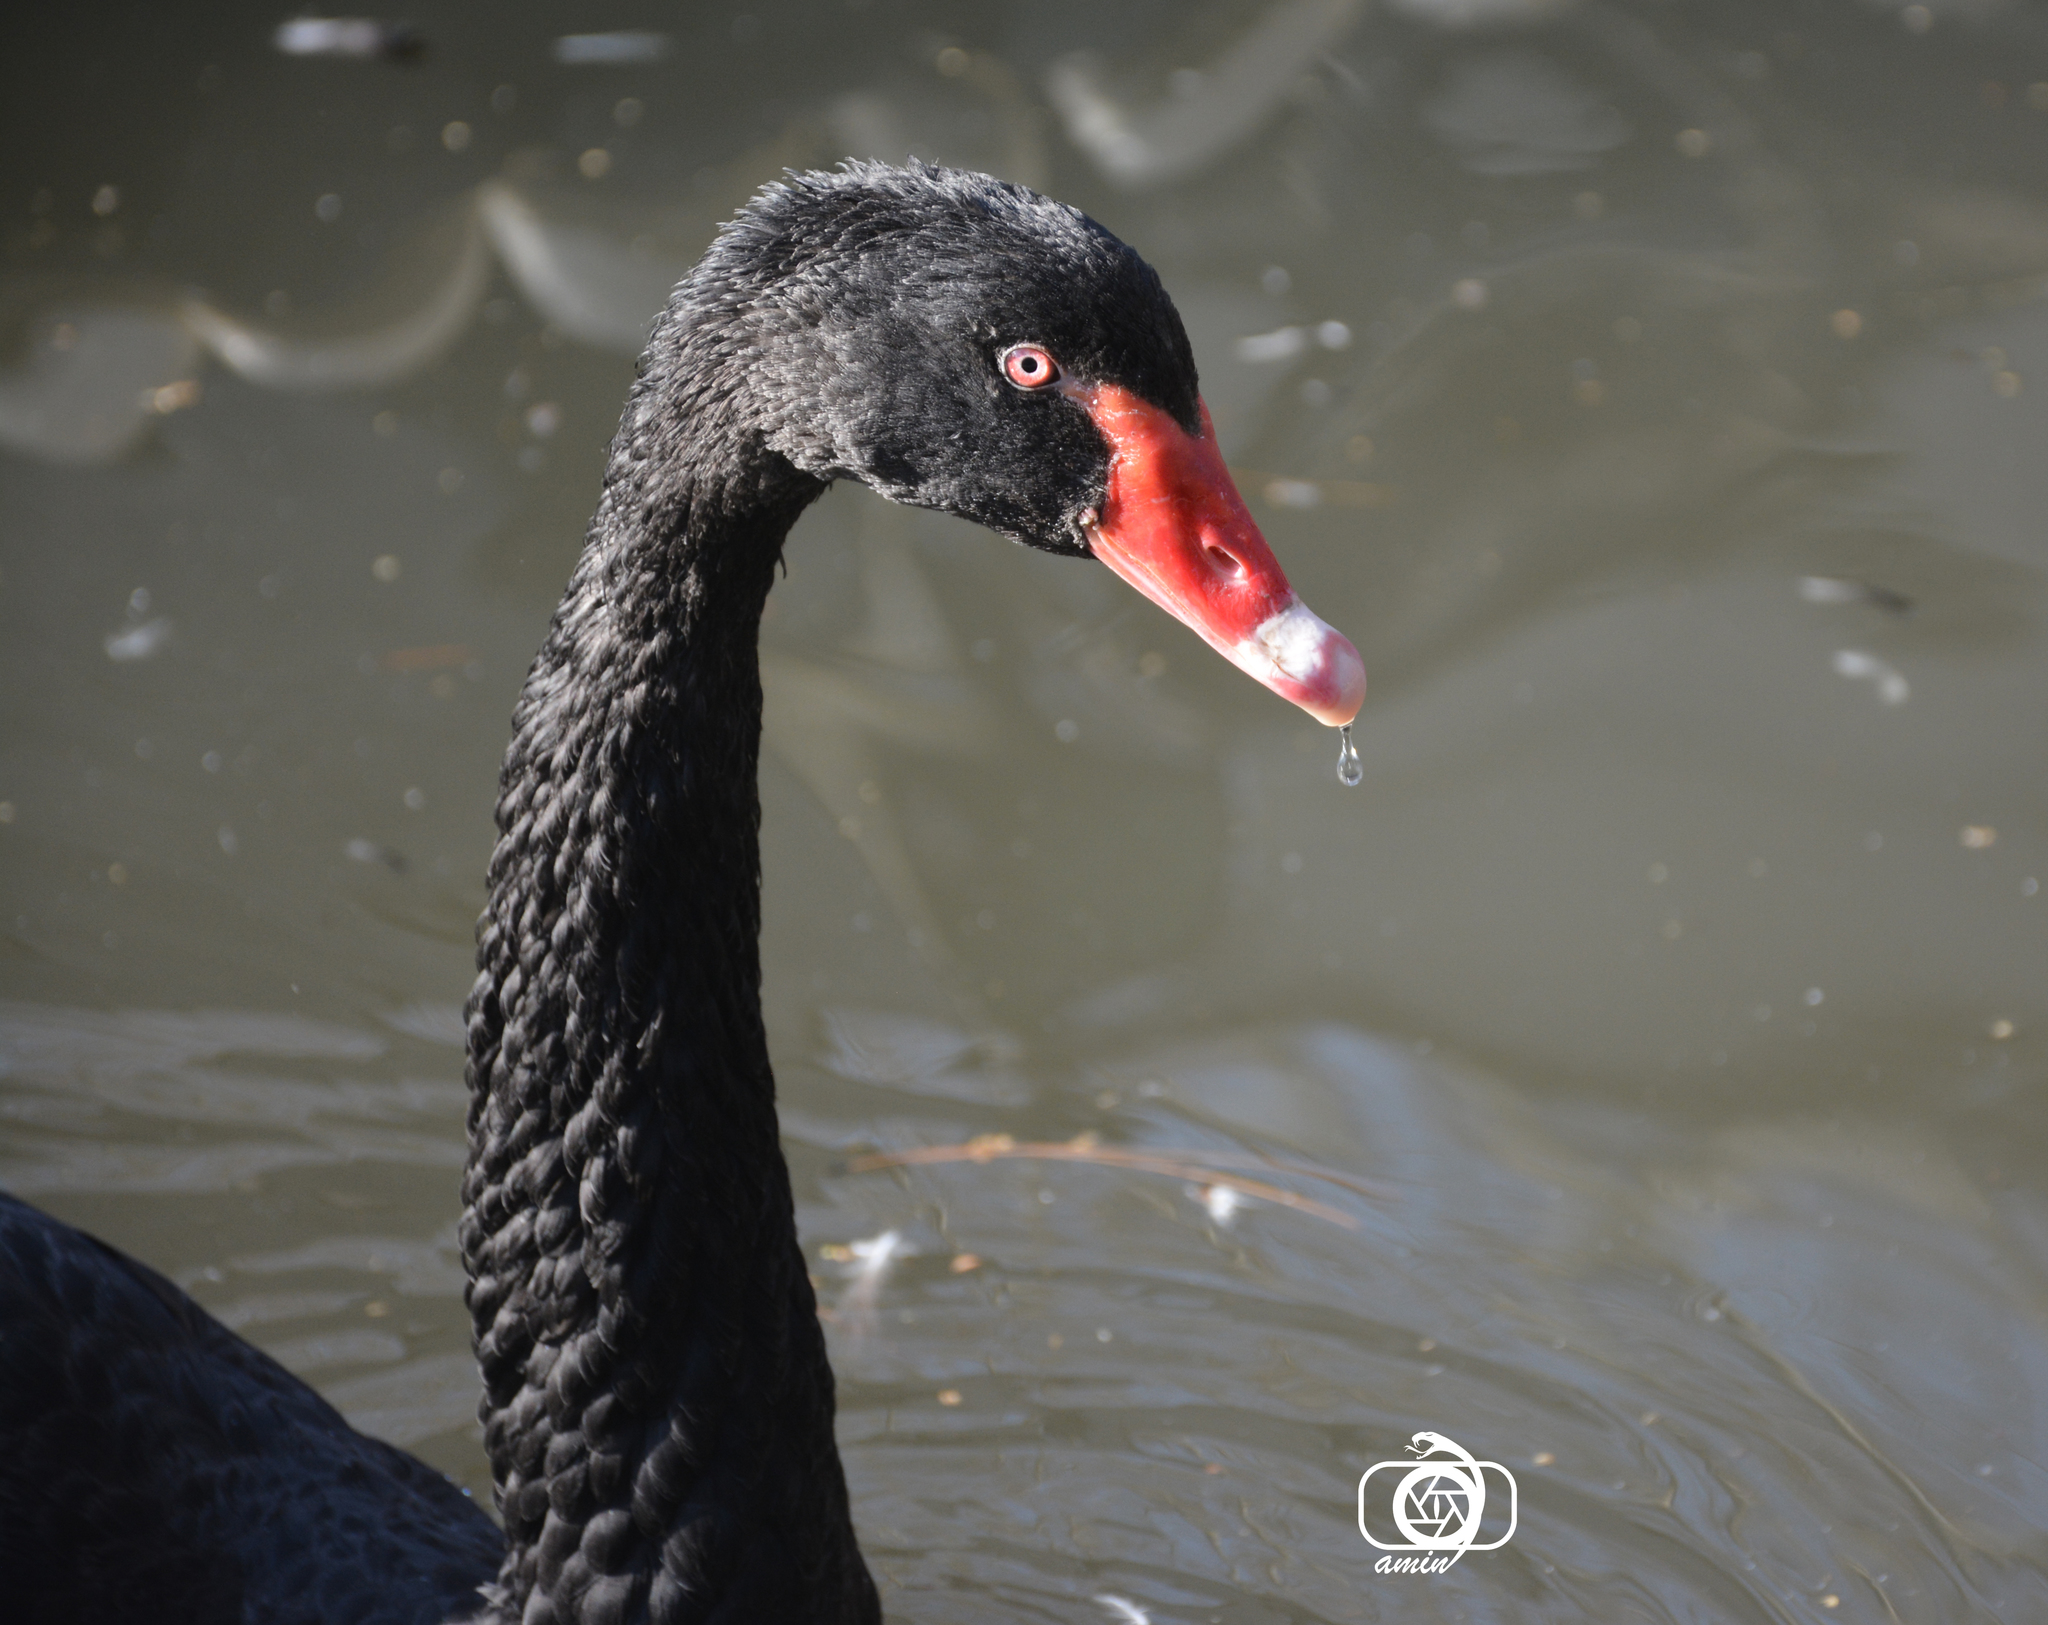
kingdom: Animalia
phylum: Chordata
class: Aves
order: Anseriformes
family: Anatidae
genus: Cygnus
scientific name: Cygnus atratus
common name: Black swan
